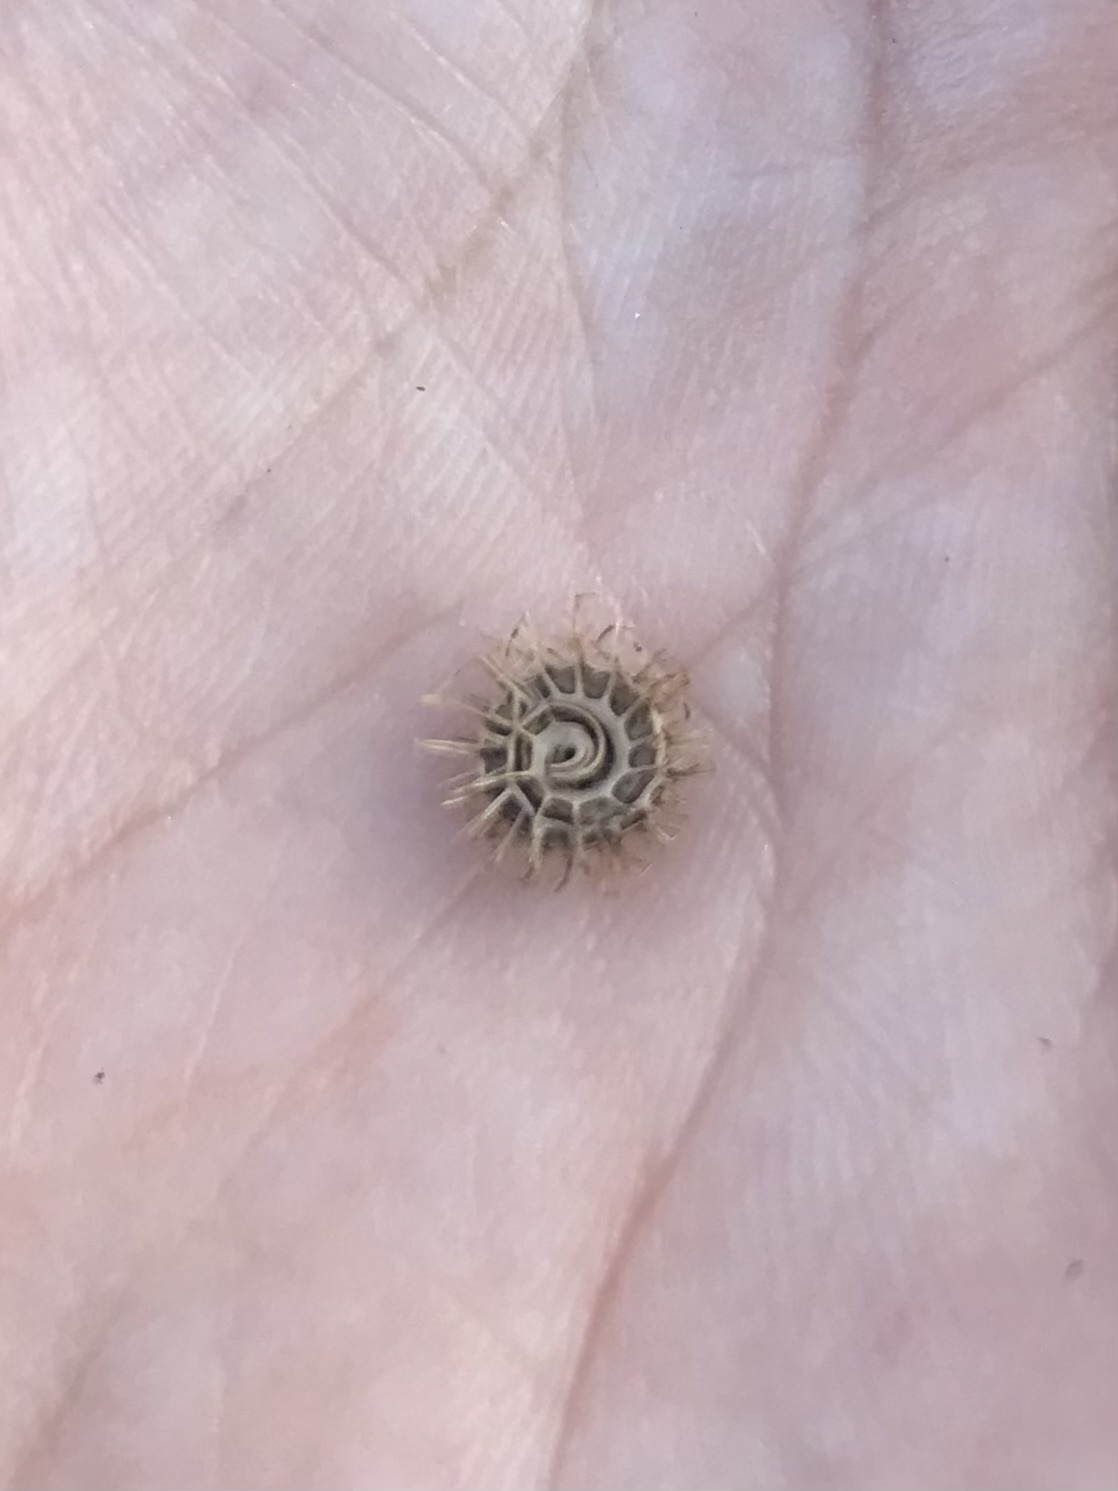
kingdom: Plantae
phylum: Tracheophyta
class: Magnoliopsida
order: Fabales
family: Fabaceae
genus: Medicago
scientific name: Medicago polymorpha
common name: Burclover
